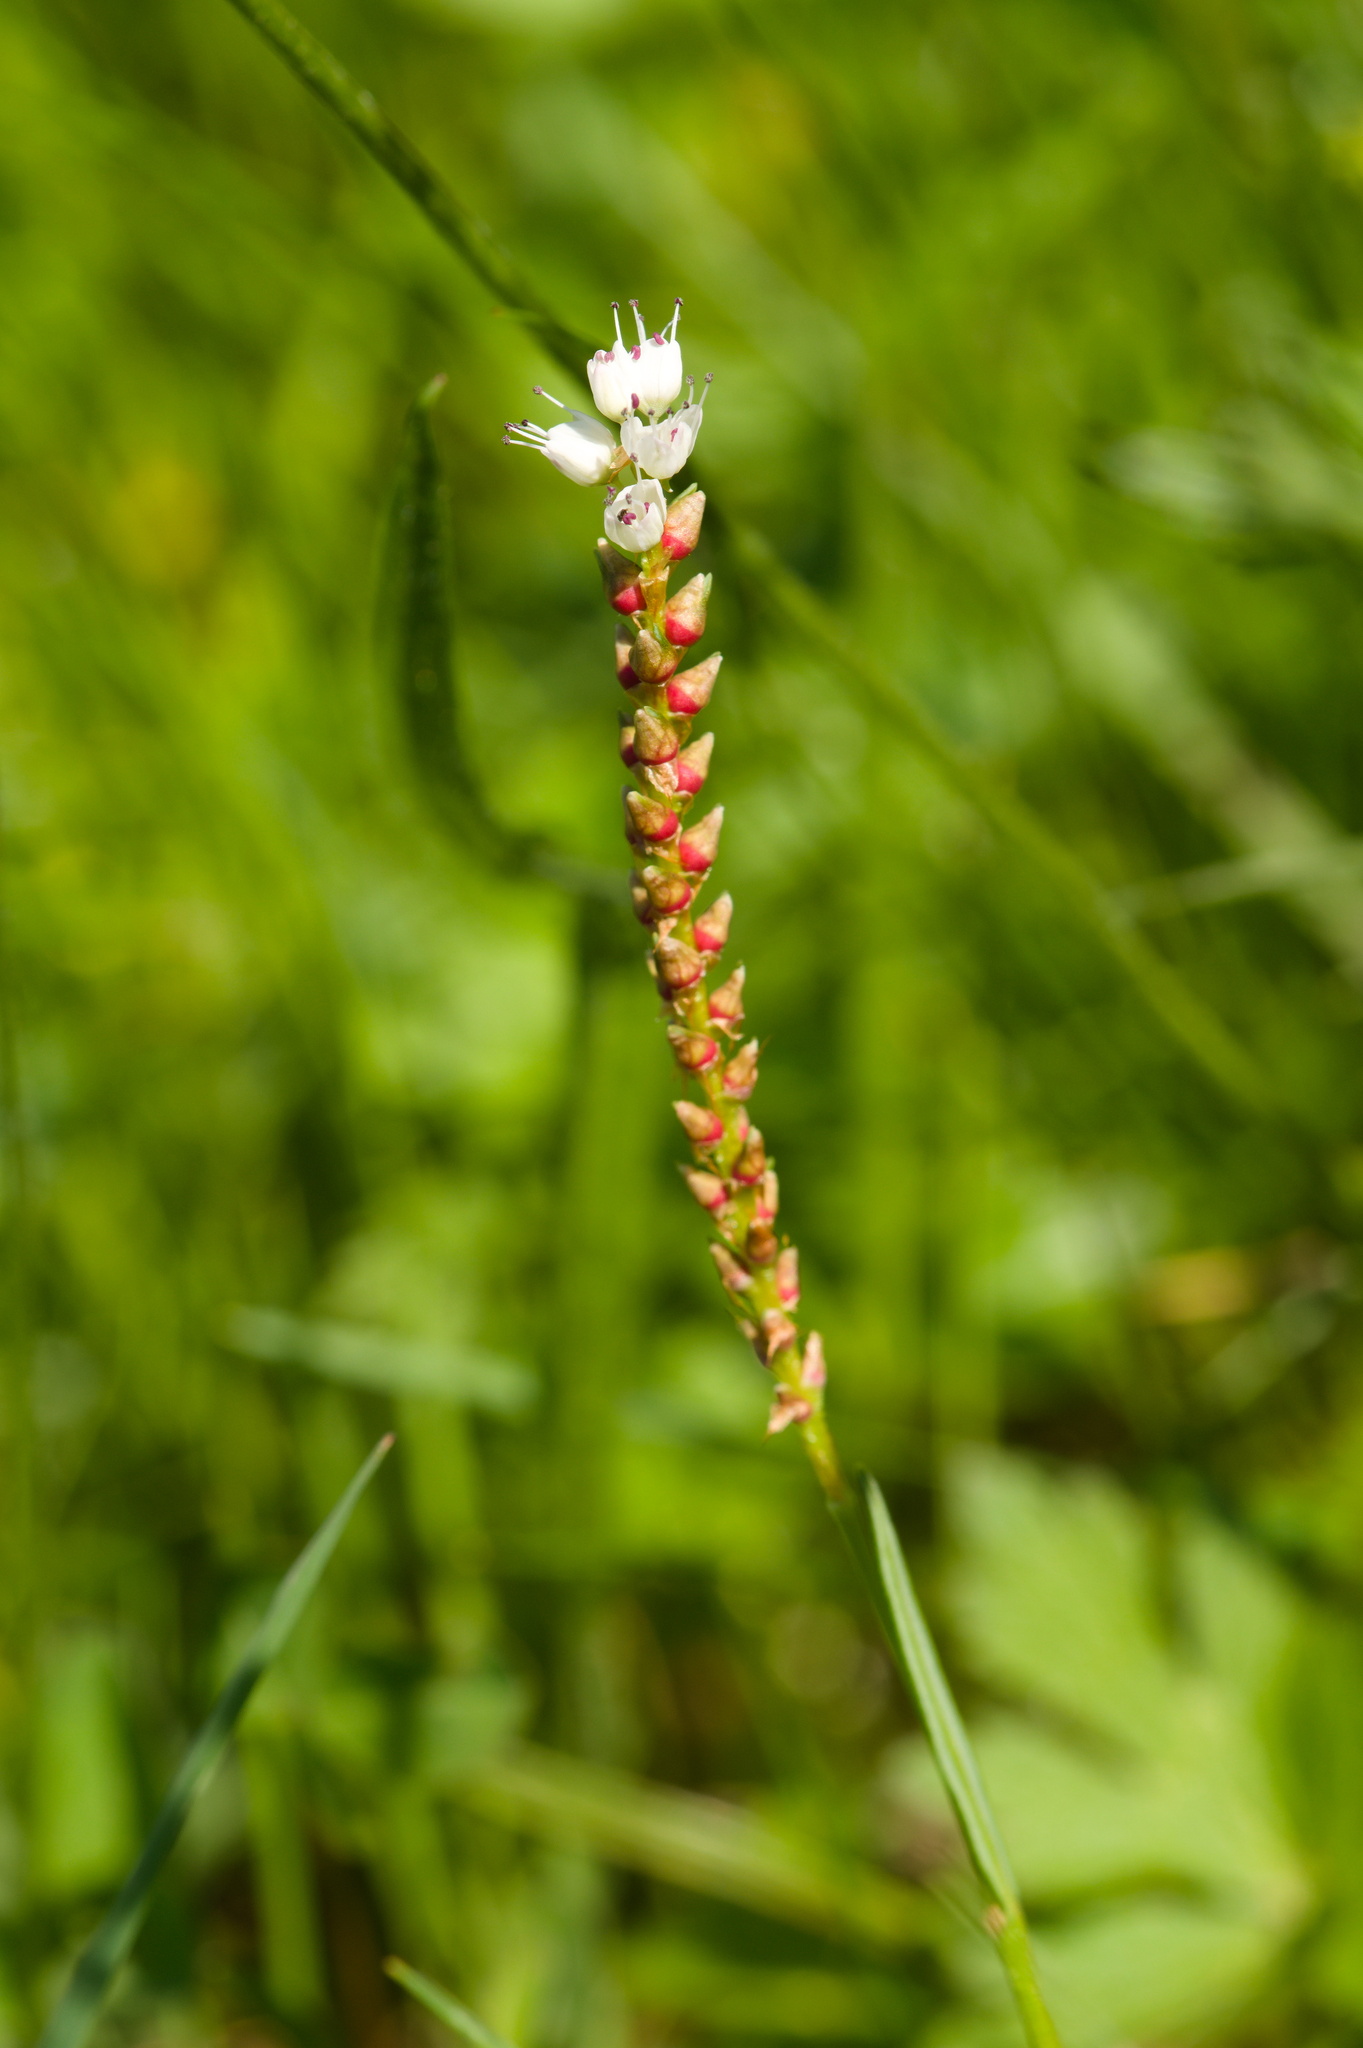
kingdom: Plantae
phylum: Tracheophyta
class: Magnoliopsida
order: Caryophyllales
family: Polygonaceae
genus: Bistorta
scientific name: Bistorta vivipara
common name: Alpine bistort
